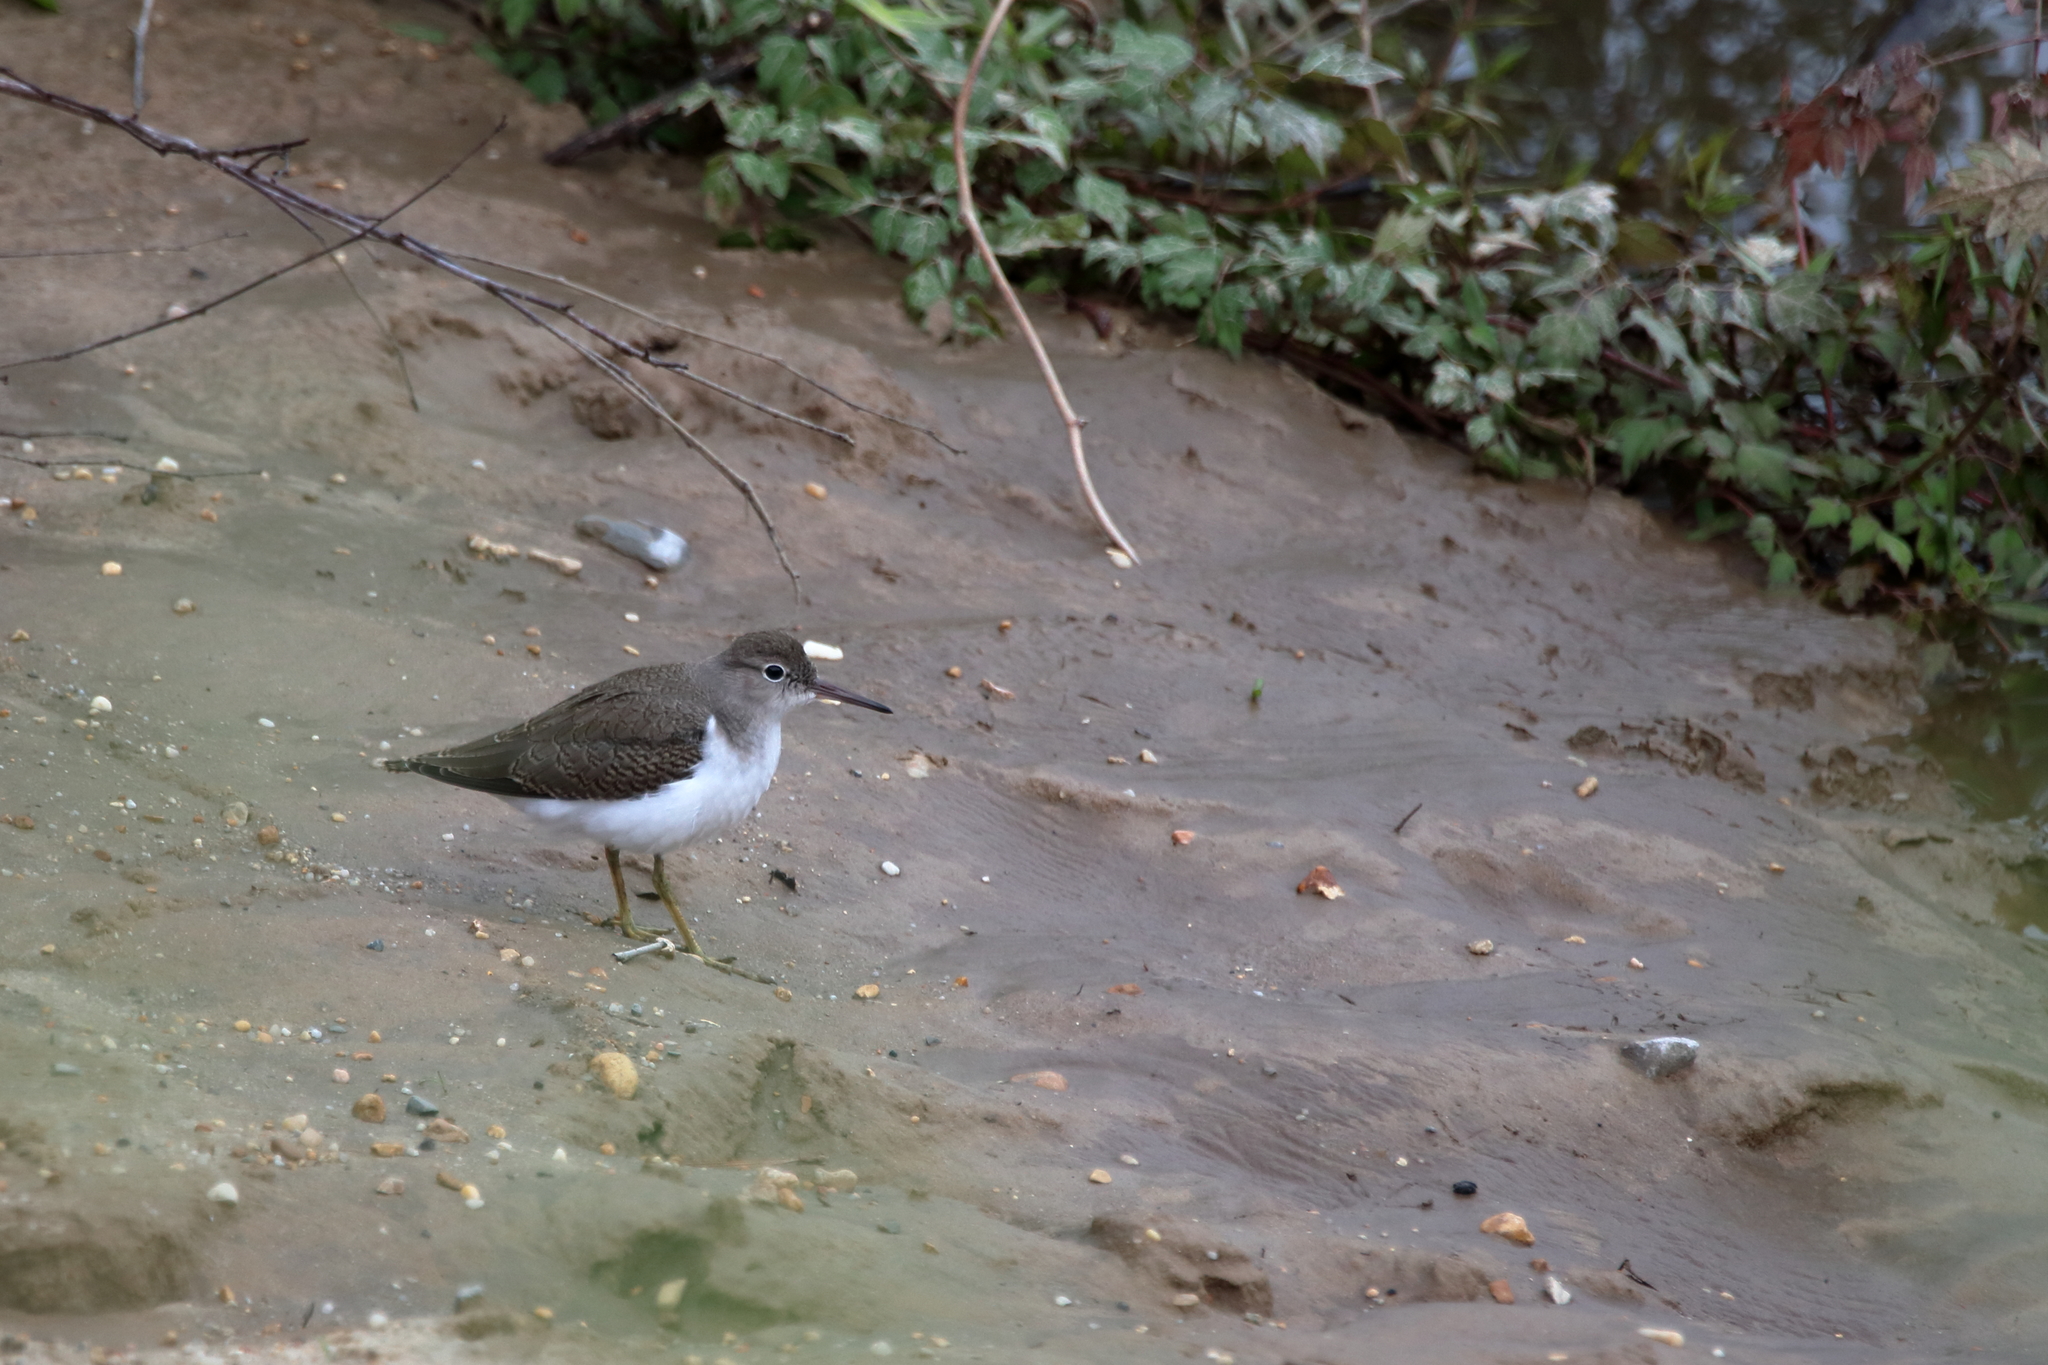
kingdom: Animalia
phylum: Chordata
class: Aves
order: Charadriiformes
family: Scolopacidae
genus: Actitis
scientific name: Actitis macularius
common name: Spotted sandpiper
